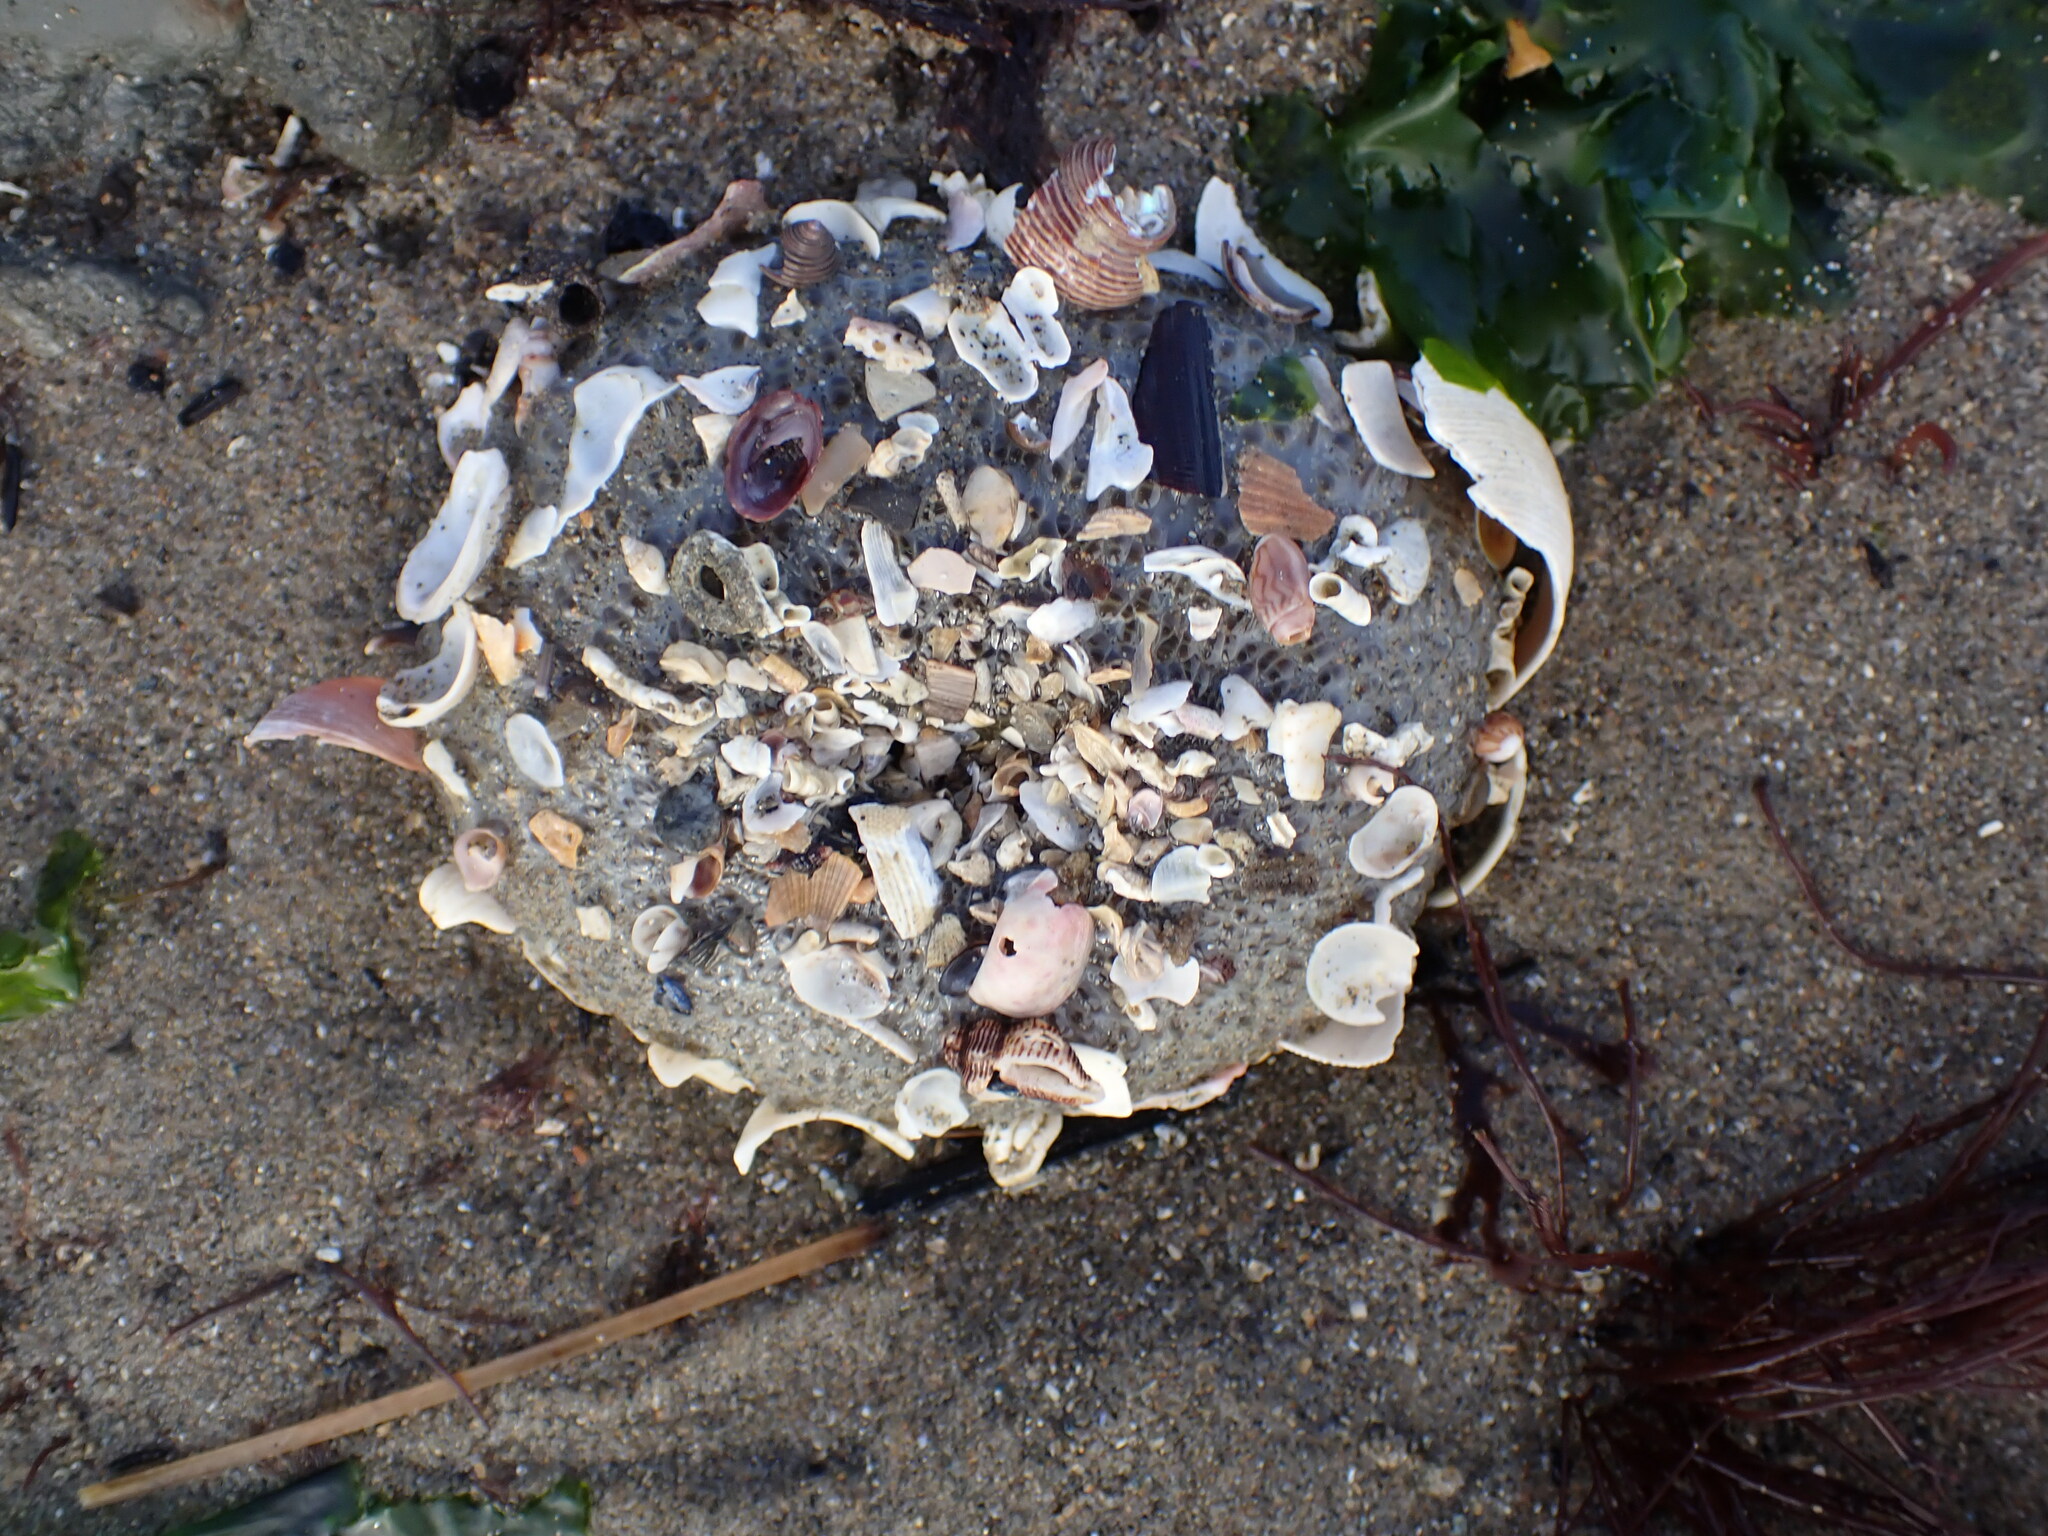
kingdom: Animalia
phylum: Mollusca
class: Gastropoda
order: Neogastropoda
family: Olividae
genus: Callianax
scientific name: Callianax alectona
